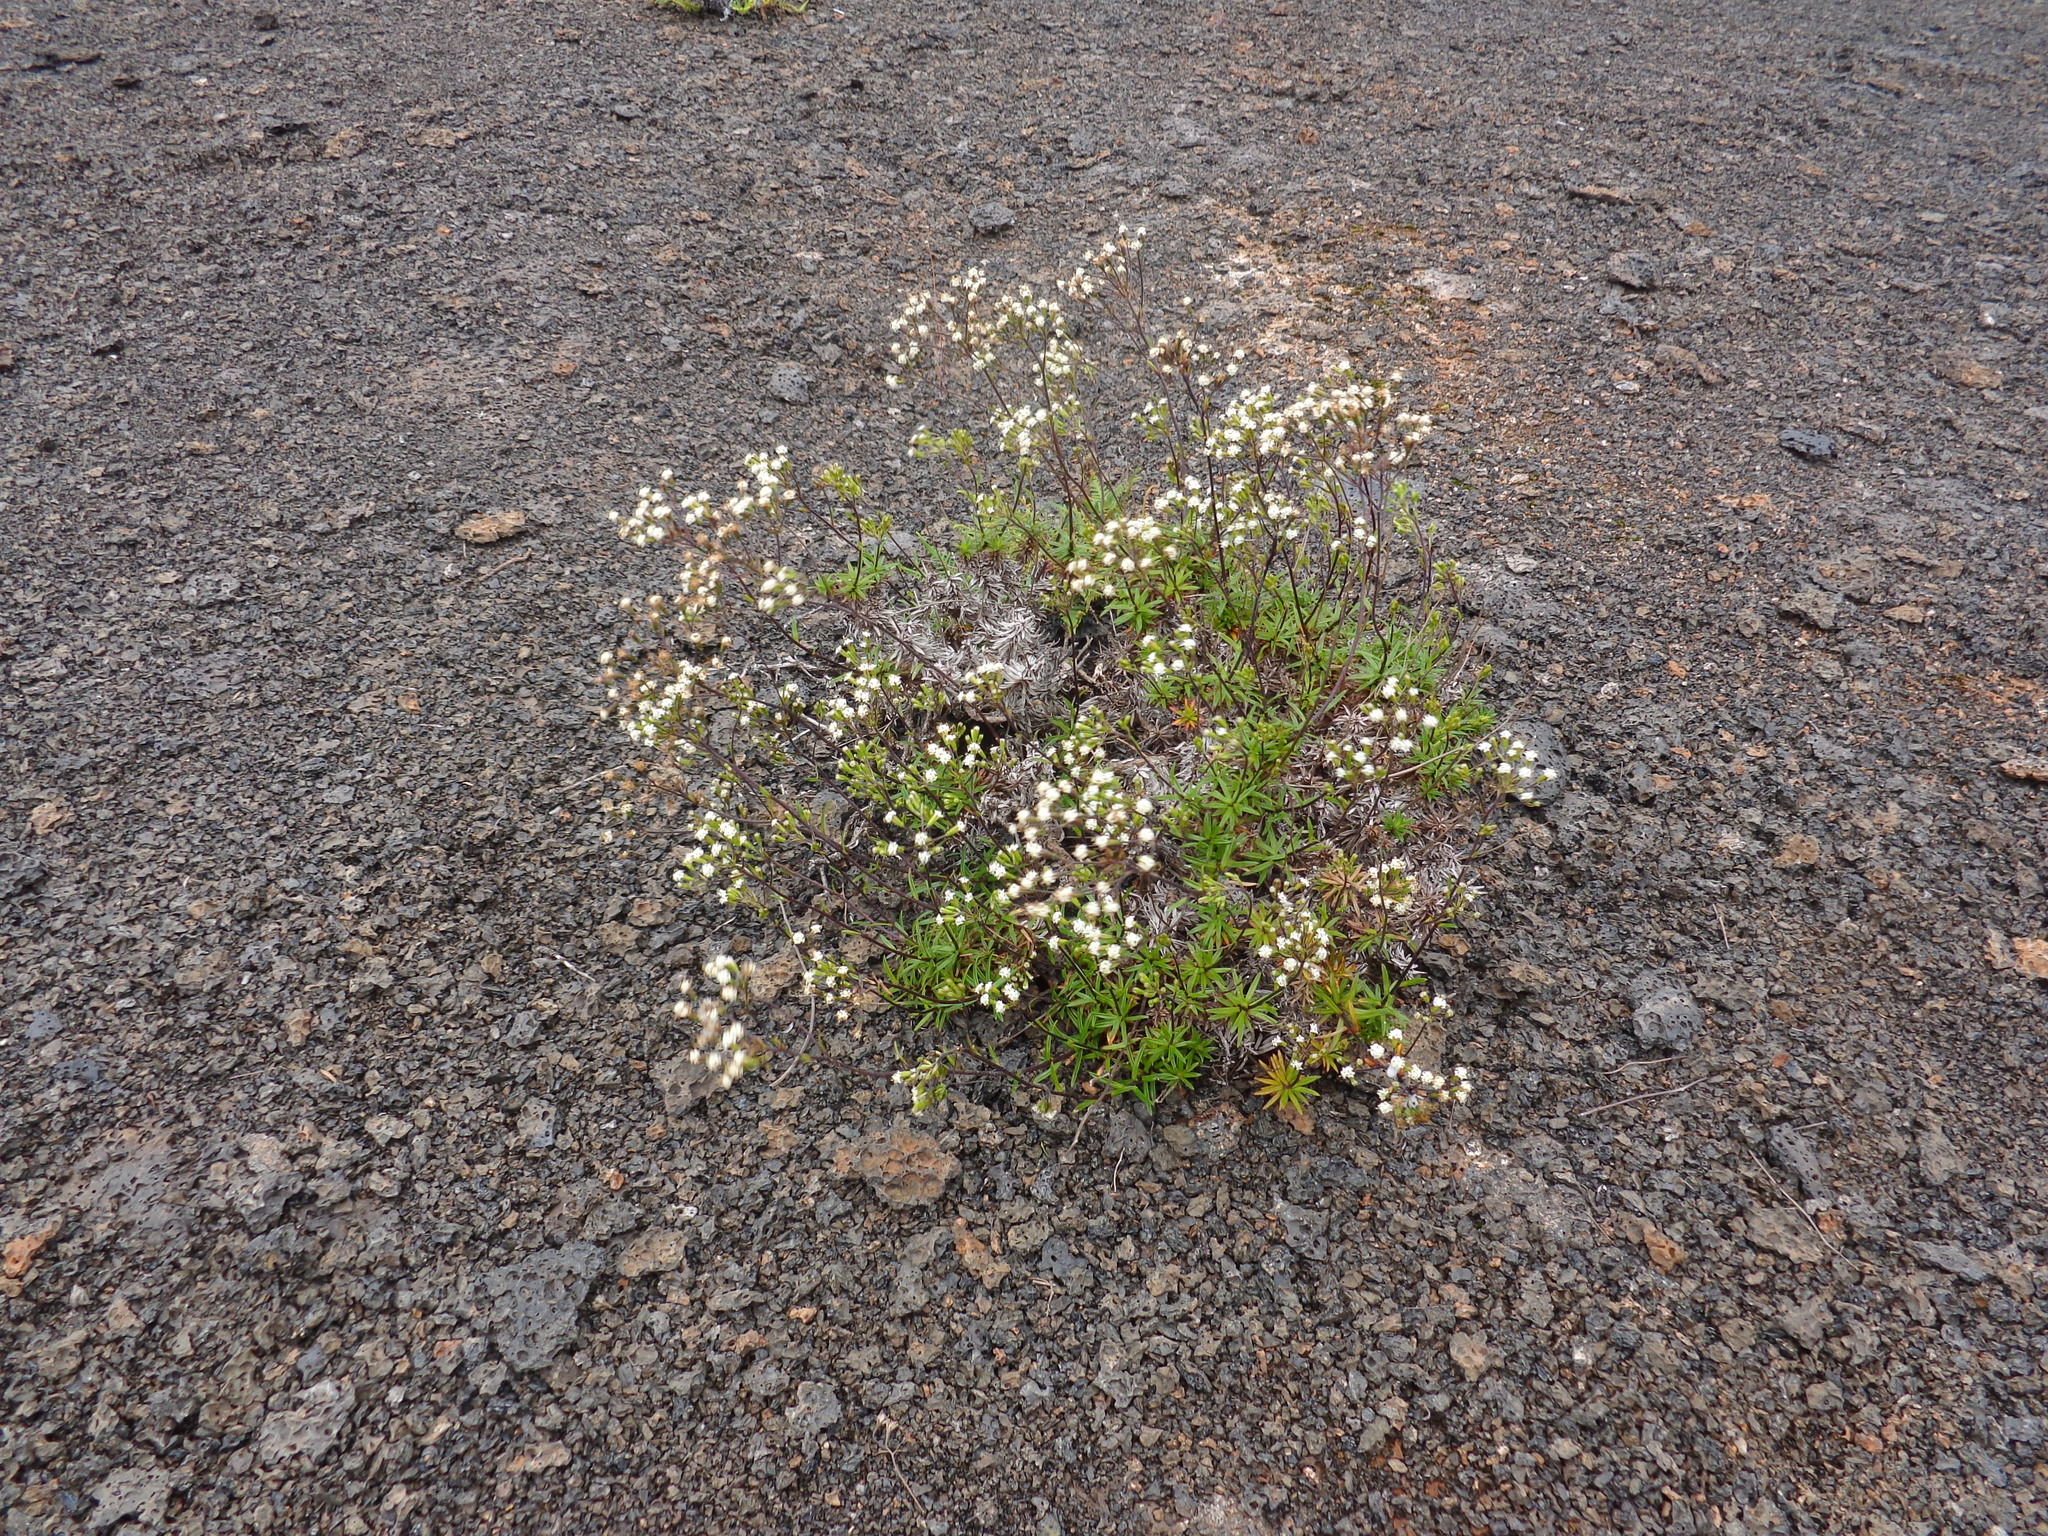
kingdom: Plantae
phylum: Tracheophyta
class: Magnoliopsida
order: Asterales
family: Asteraceae
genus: Dubautia
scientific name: Dubautia scabra
